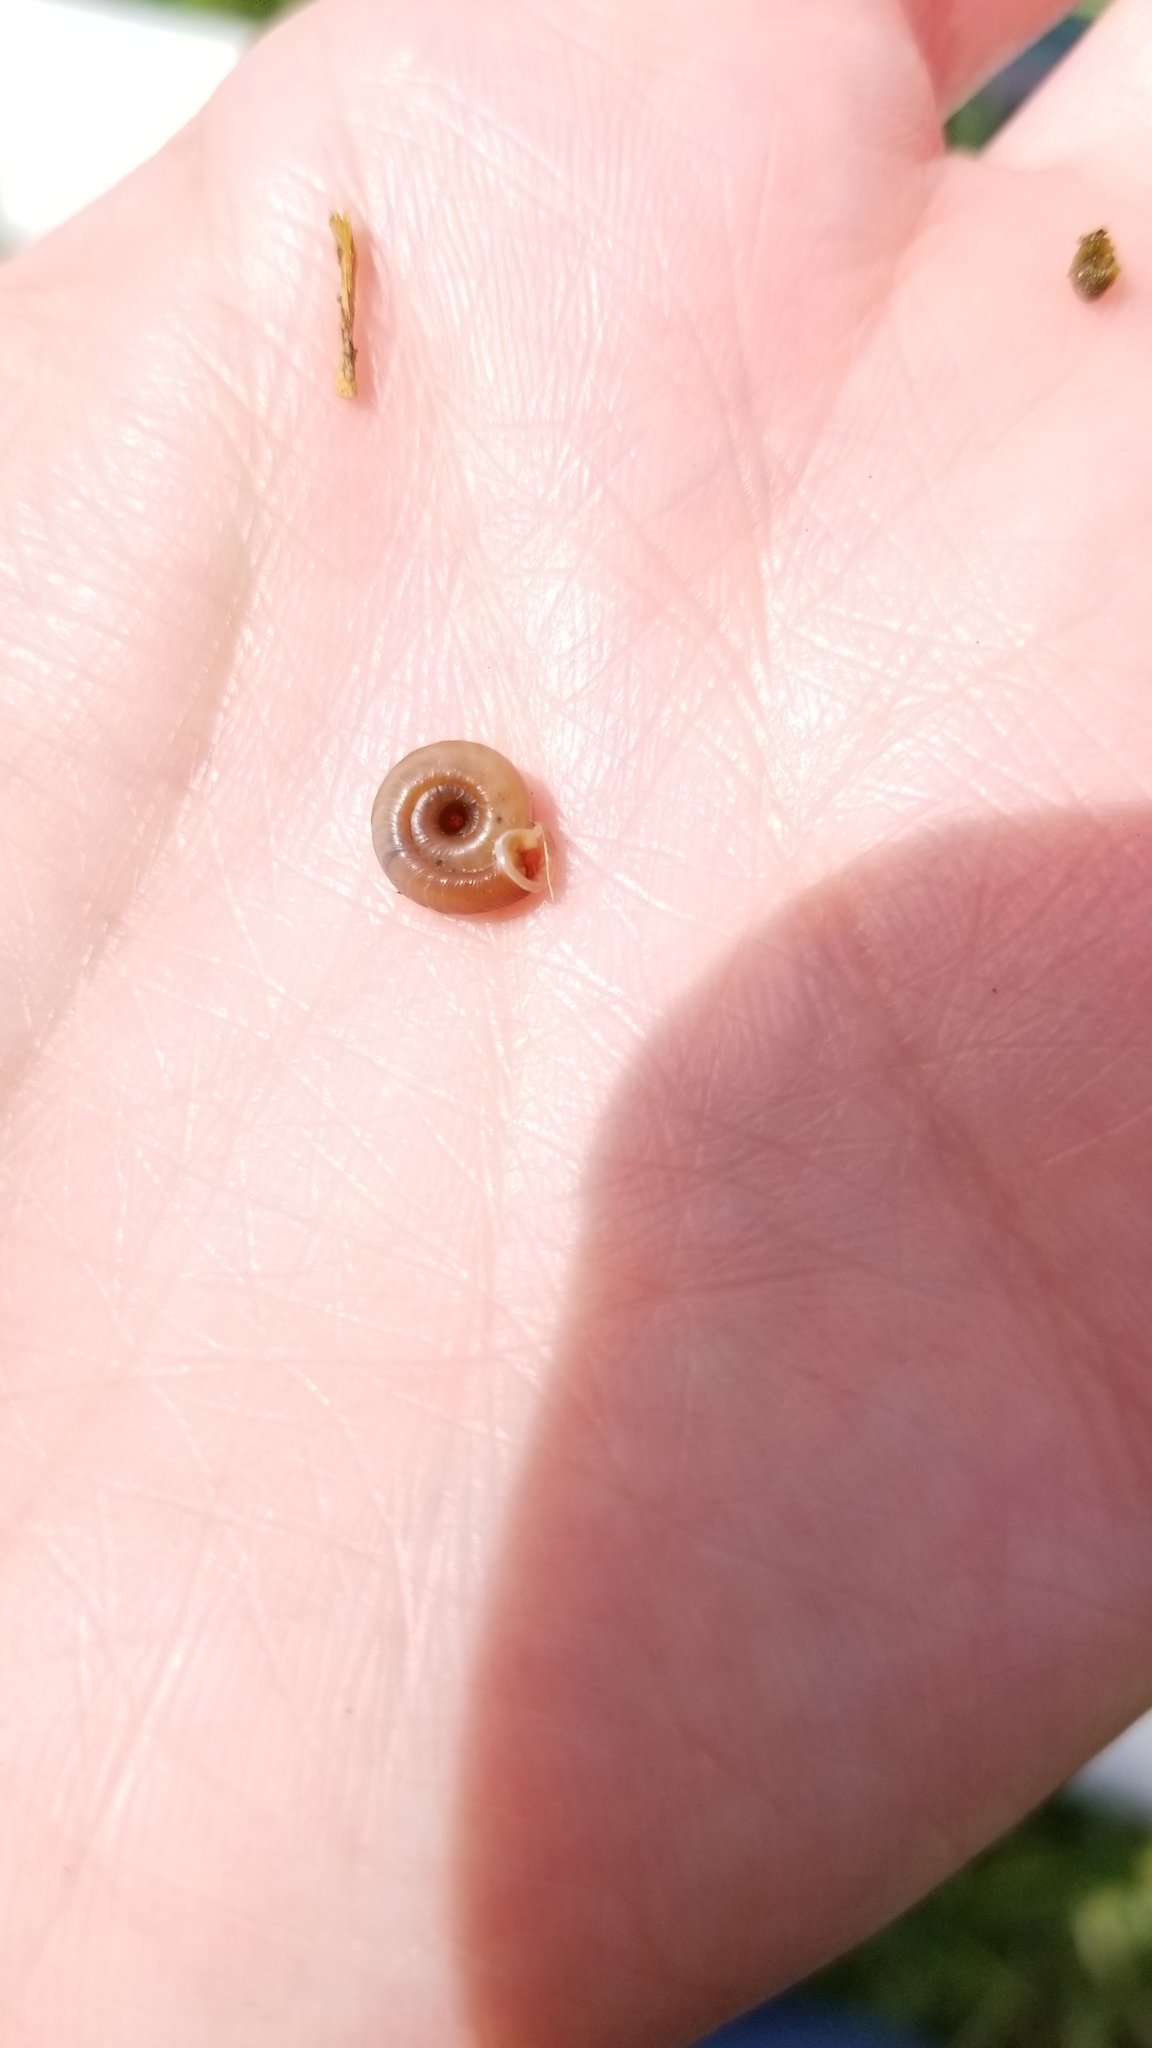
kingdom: Animalia
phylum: Mollusca
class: Gastropoda
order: Stylommatophora
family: Polygyridae
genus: Polygyra
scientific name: Polygyra cereolus
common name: Southern flatcone snail
